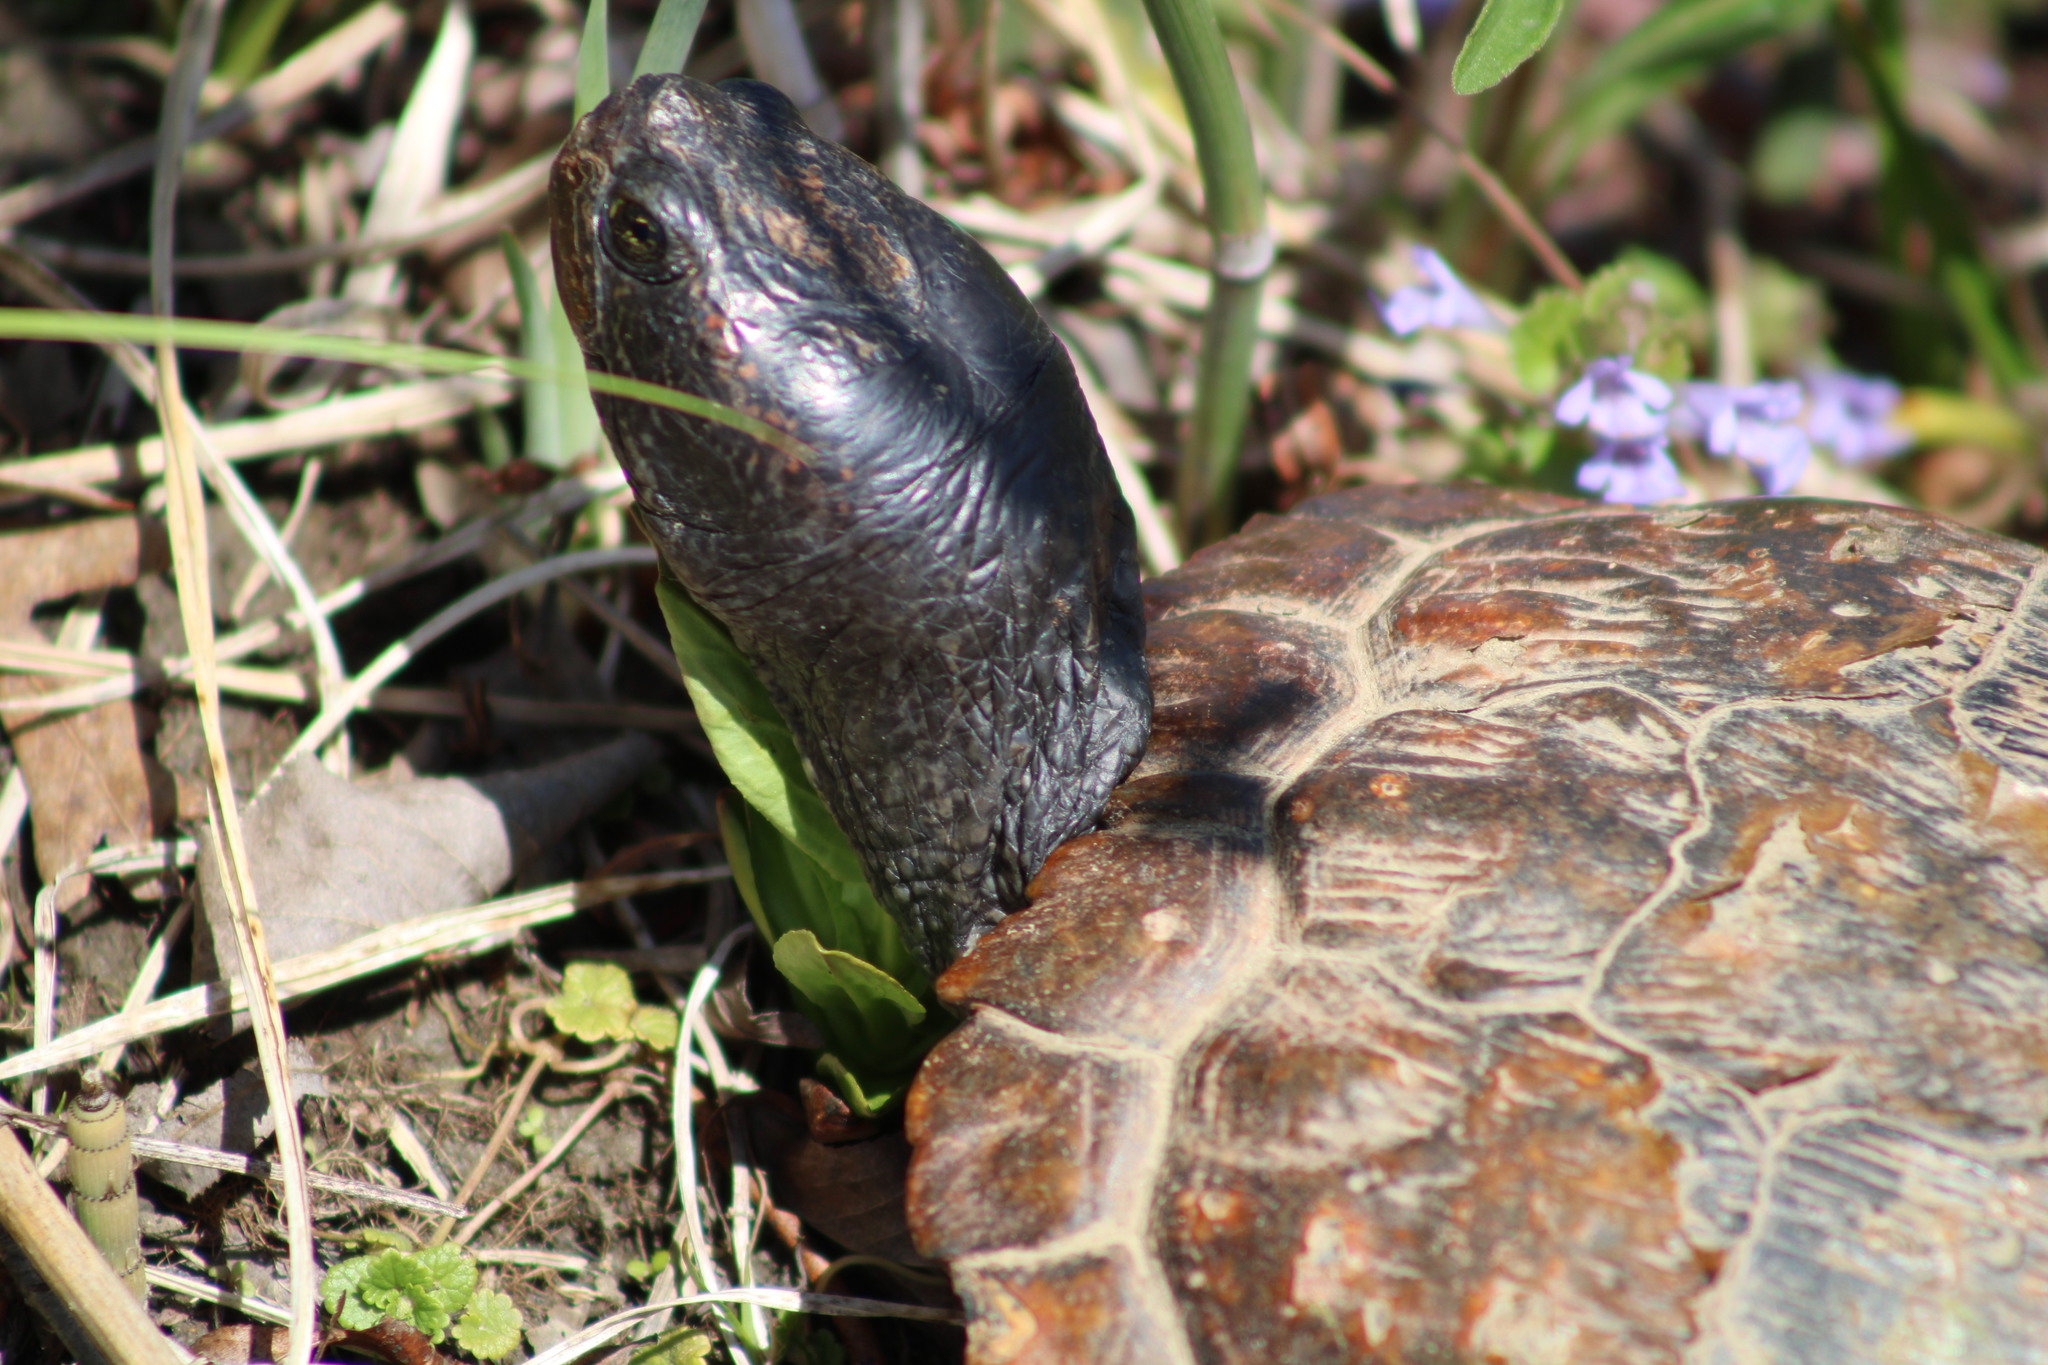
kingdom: Animalia
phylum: Chordata
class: Testudines
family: Emydidae
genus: Trachemys
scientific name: Trachemys scripta
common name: Slider
